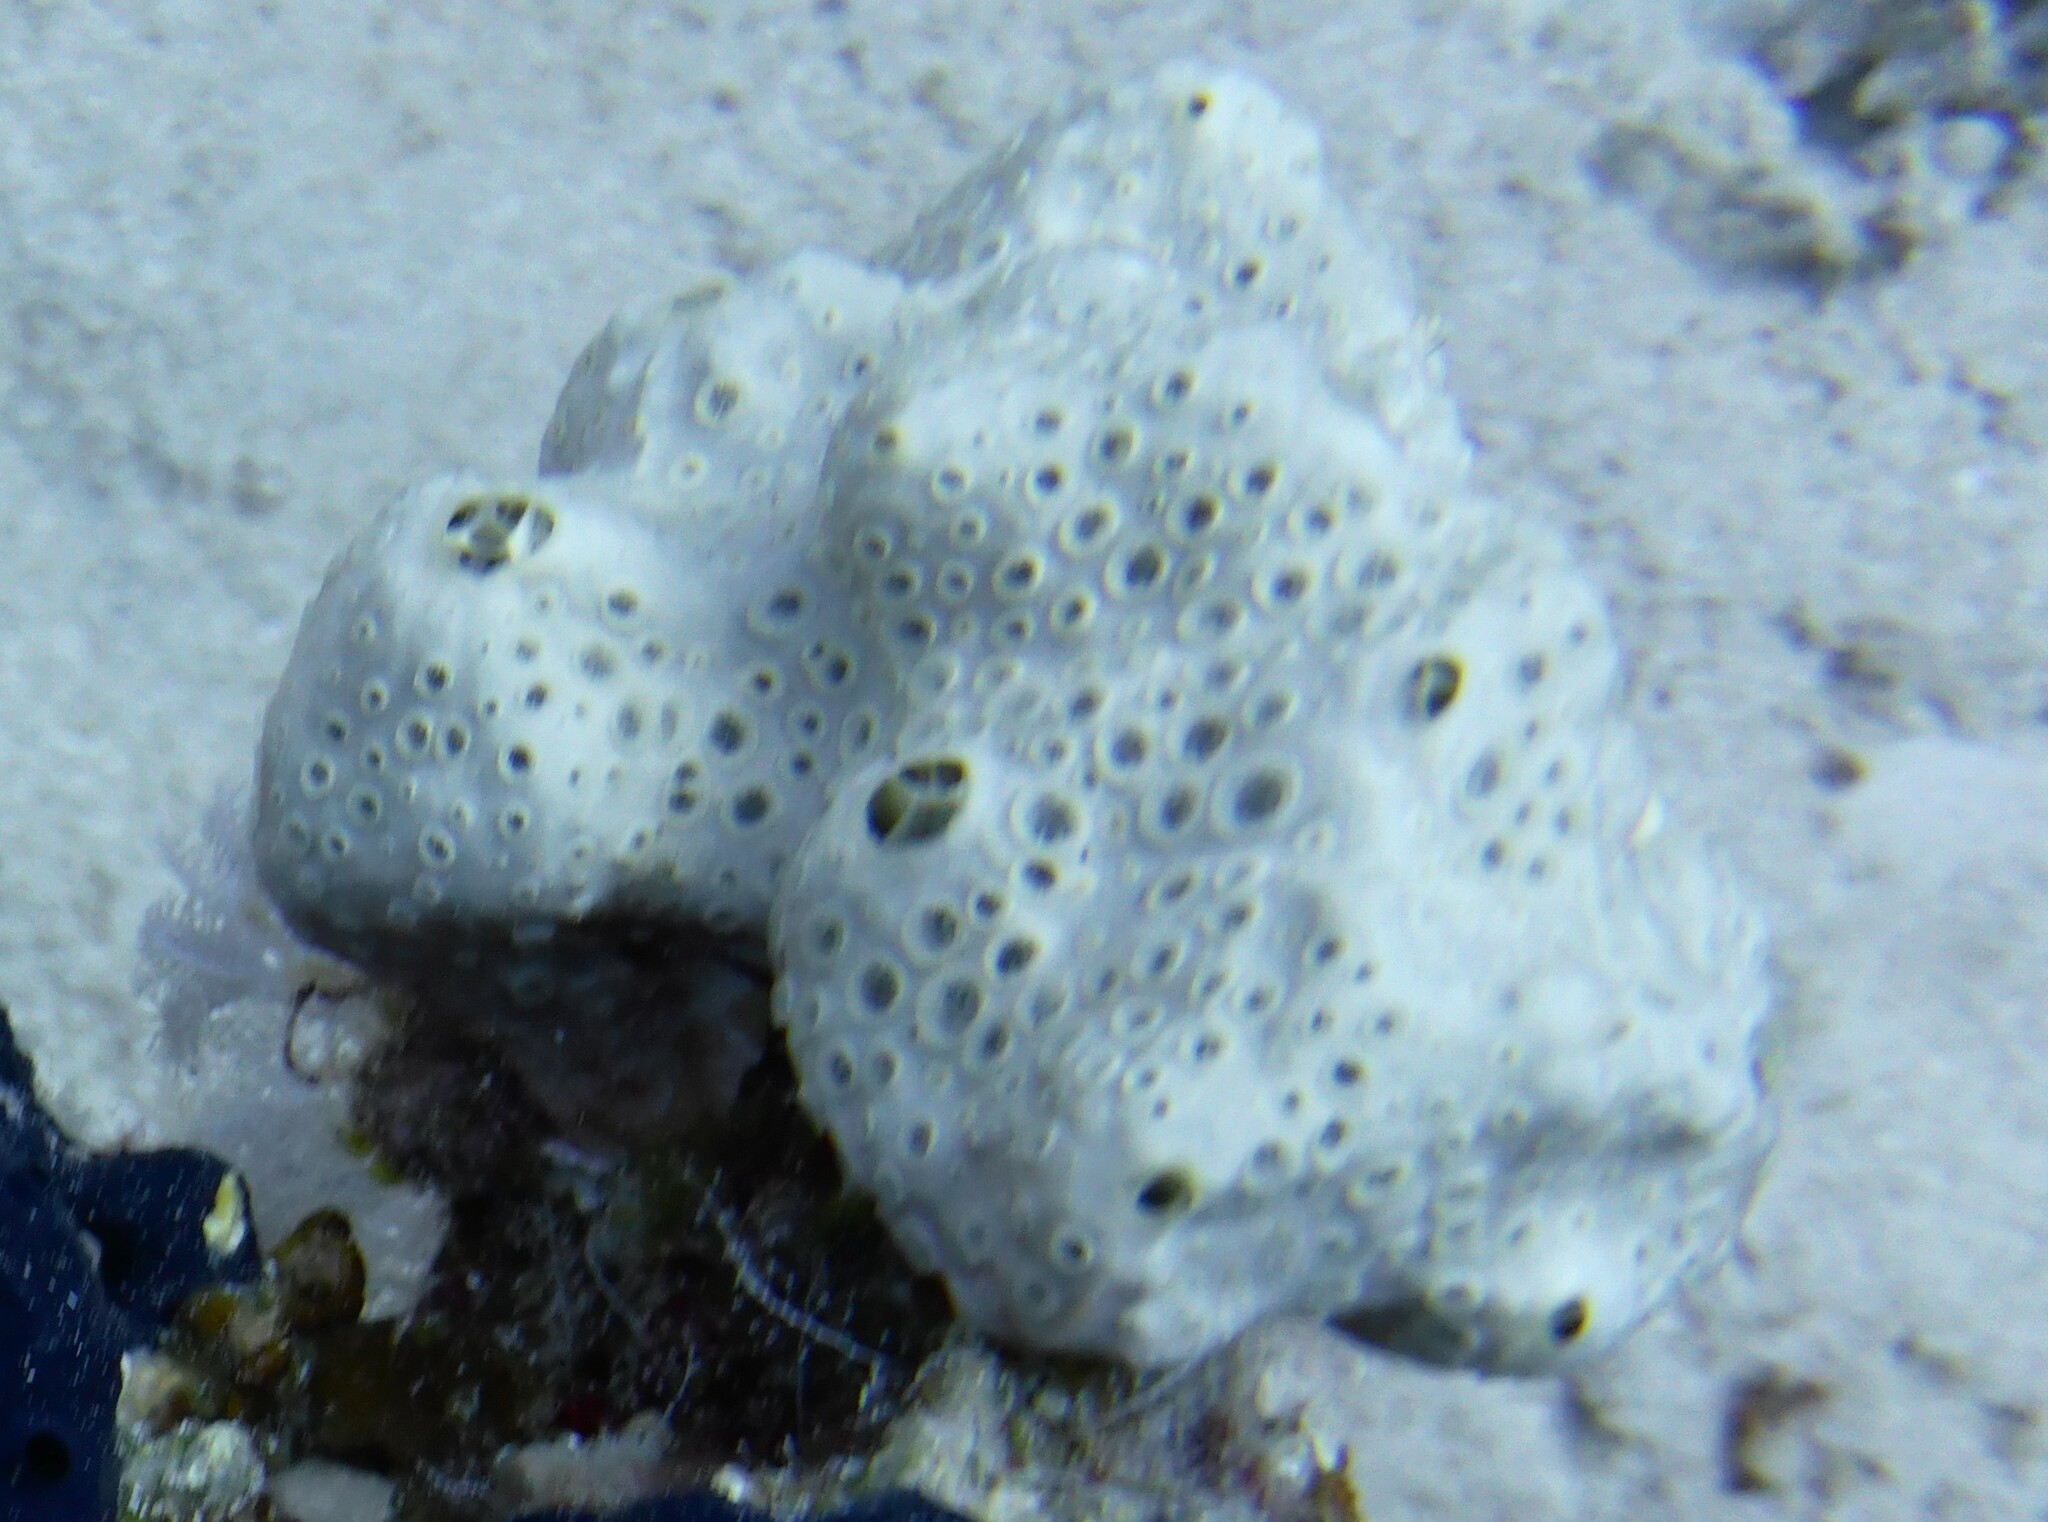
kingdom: Animalia
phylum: Porifera
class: Demospongiae
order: Poecilosclerida
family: Crellidae
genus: Crella
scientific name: Crella cyathophora
